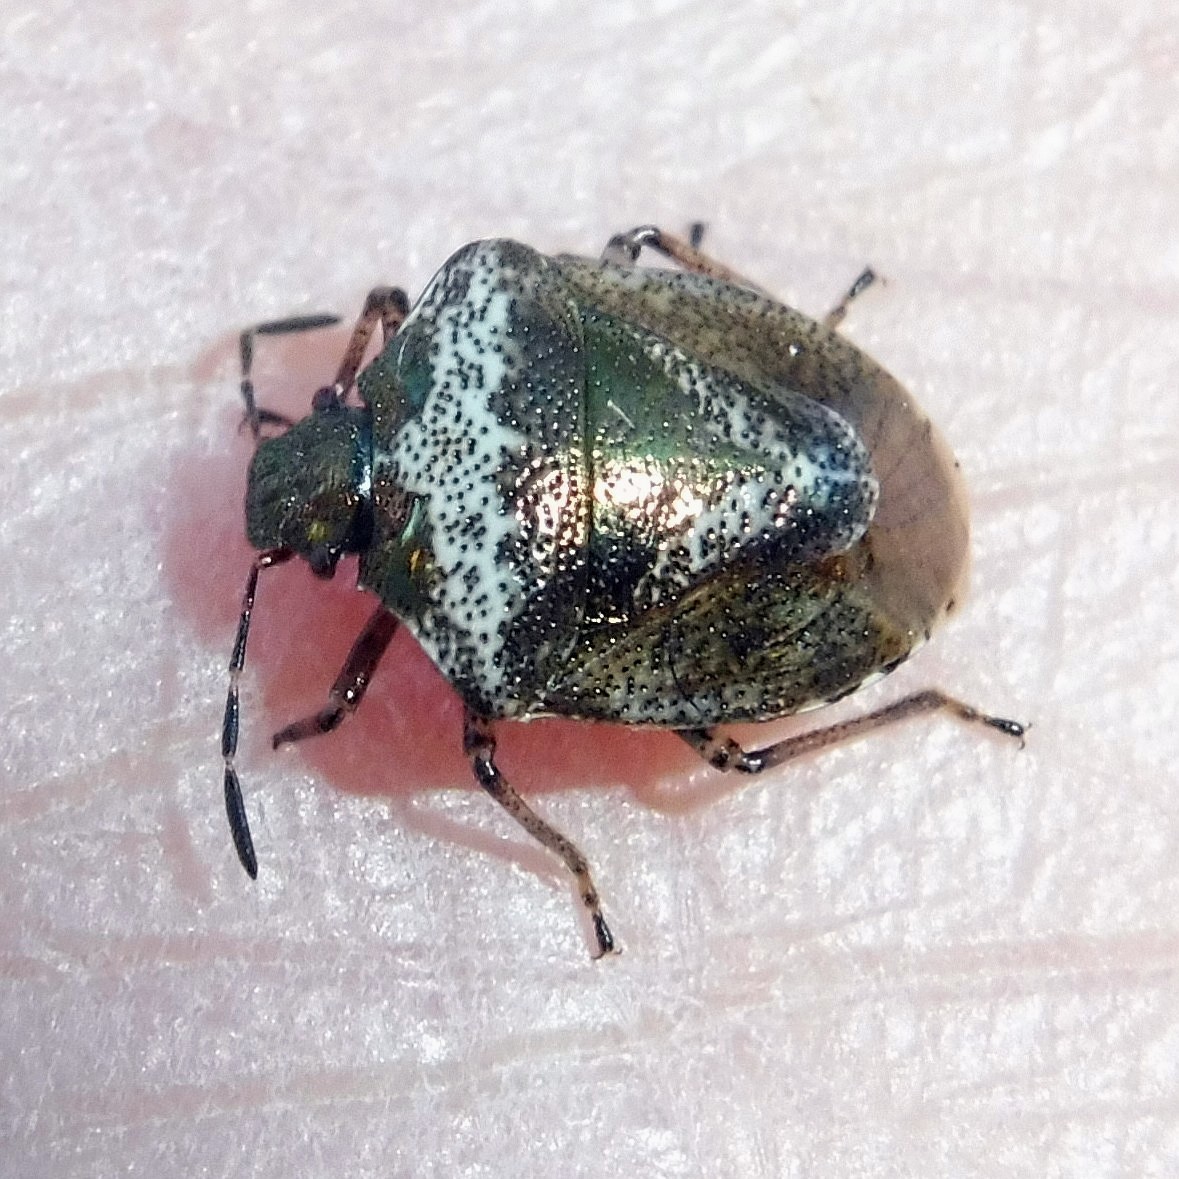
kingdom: Animalia
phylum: Arthropoda
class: Insecta
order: Hemiptera
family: Pentatomidae
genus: Eysarcoris
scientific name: Eysarcoris venustissimus
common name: Woundwort shieldbug
